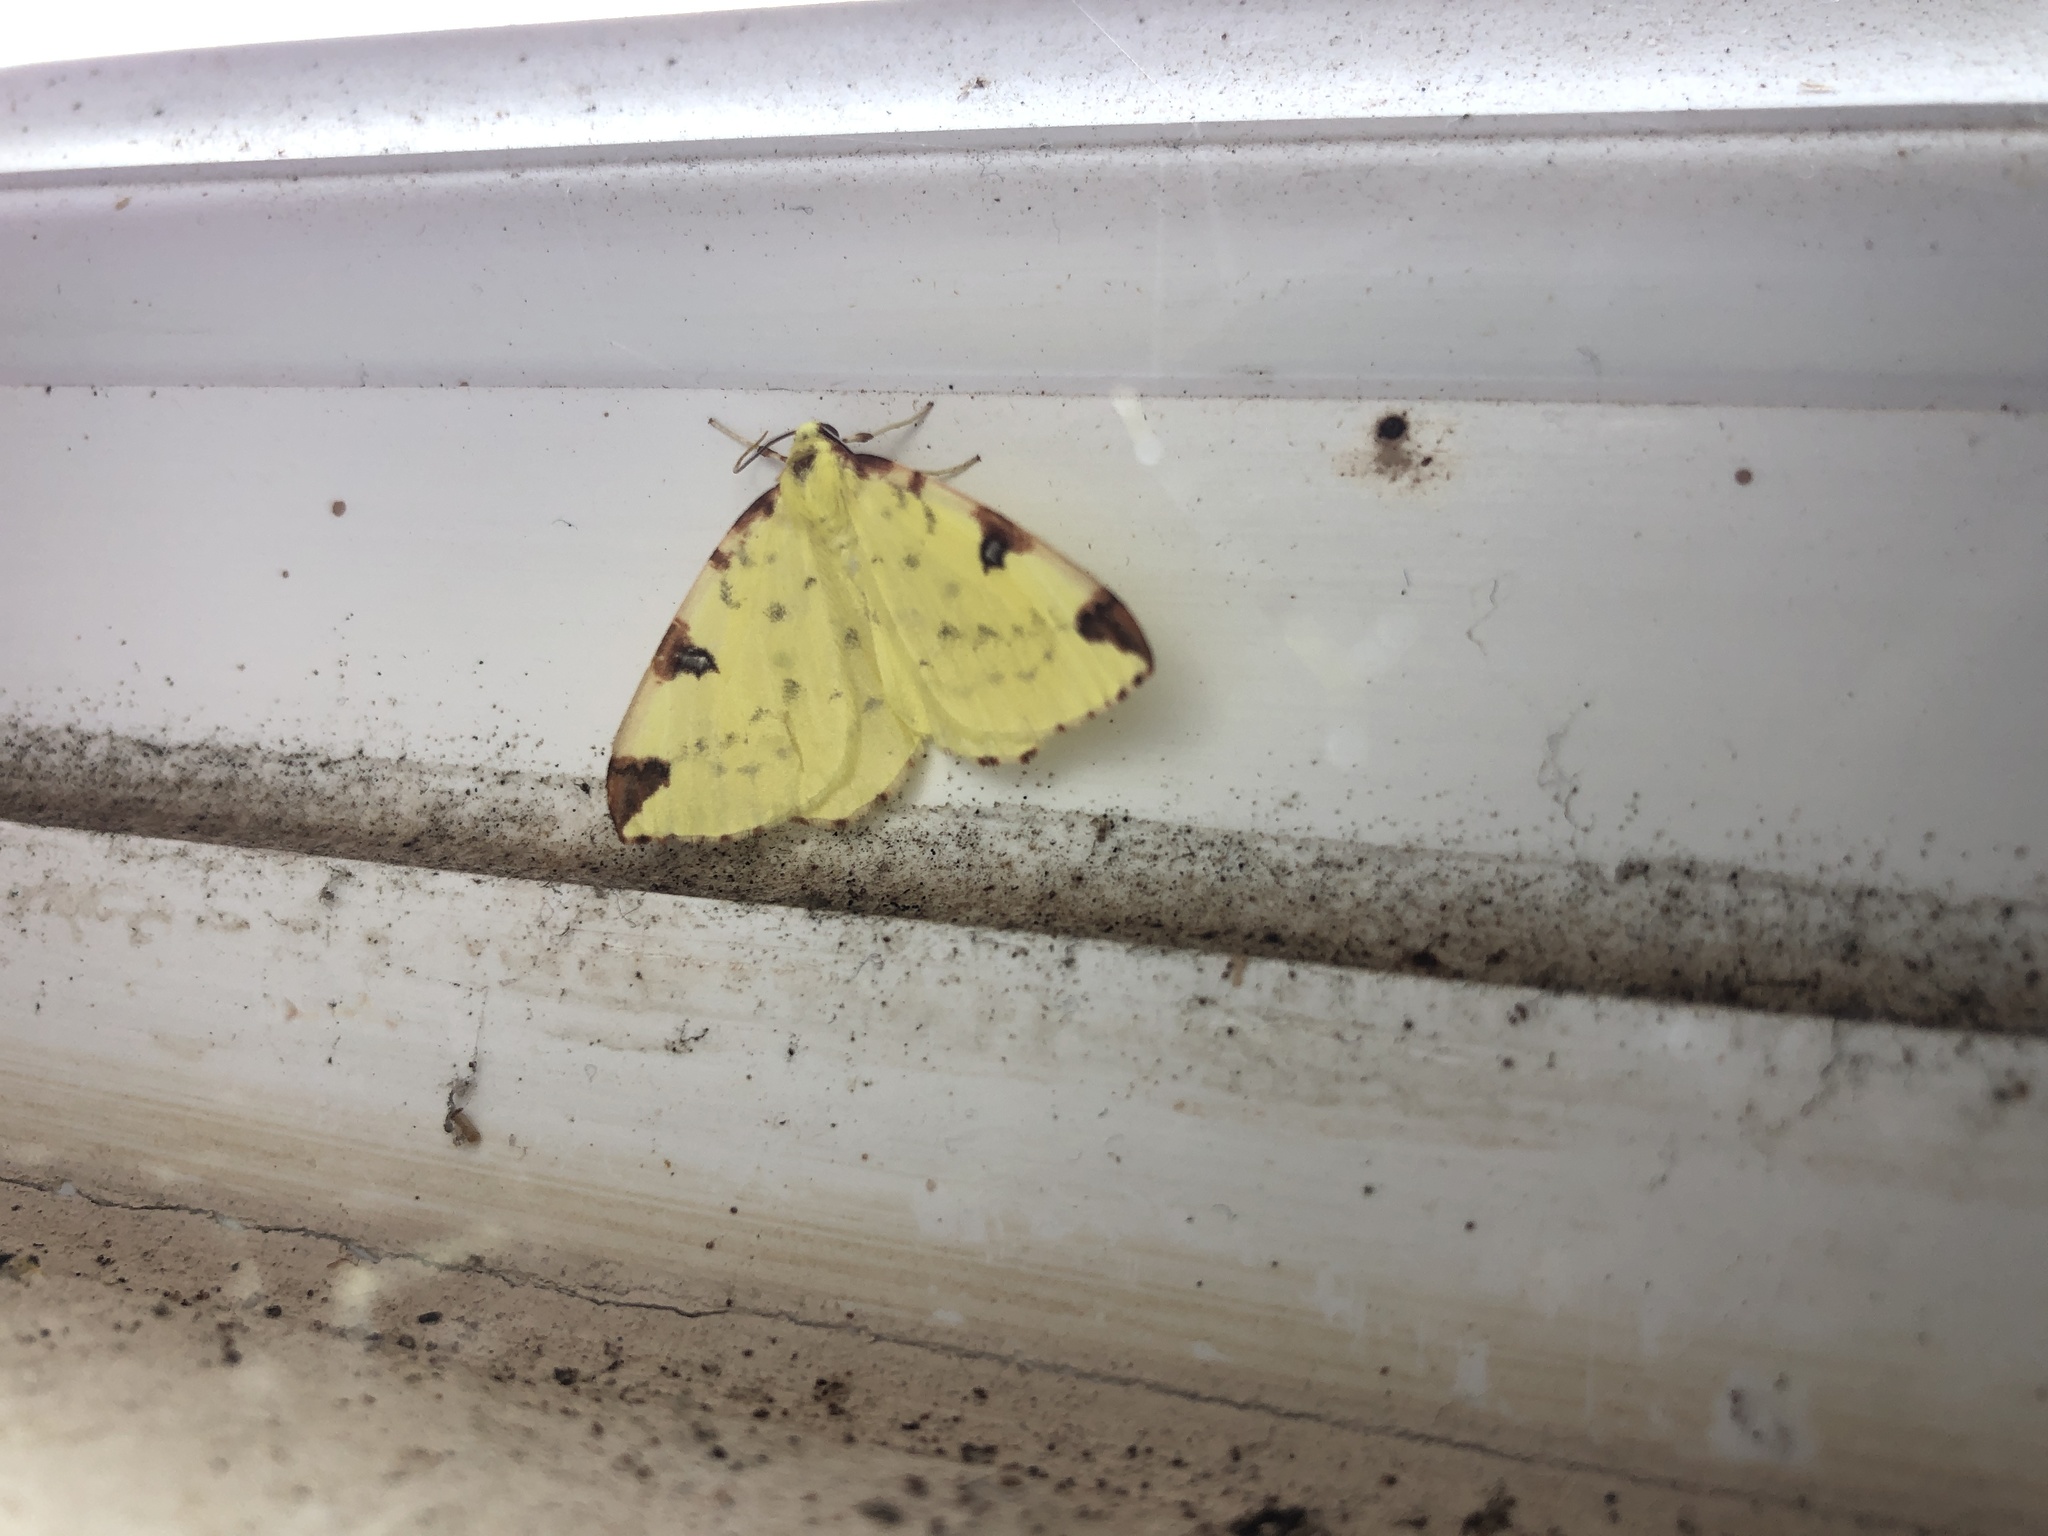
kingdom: Animalia
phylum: Arthropoda
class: Insecta
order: Lepidoptera
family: Geometridae
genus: Opisthograptis
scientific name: Opisthograptis luteolata
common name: Brimstone moth
